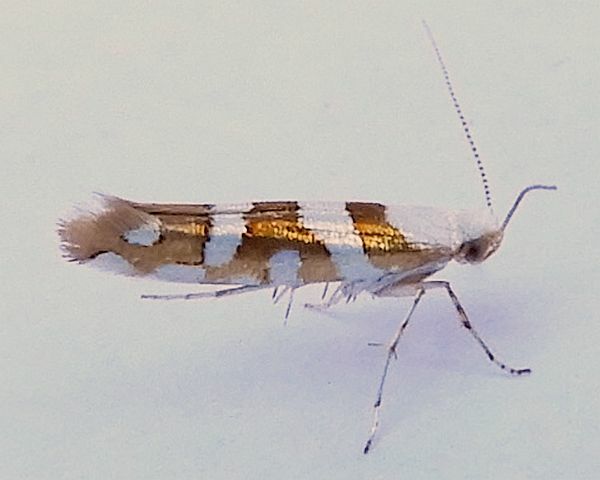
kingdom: Animalia
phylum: Arthropoda
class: Insecta
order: Lepidoptera
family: Argyresthiidae
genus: Argyresthia
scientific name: Argyresthia calliphanes
